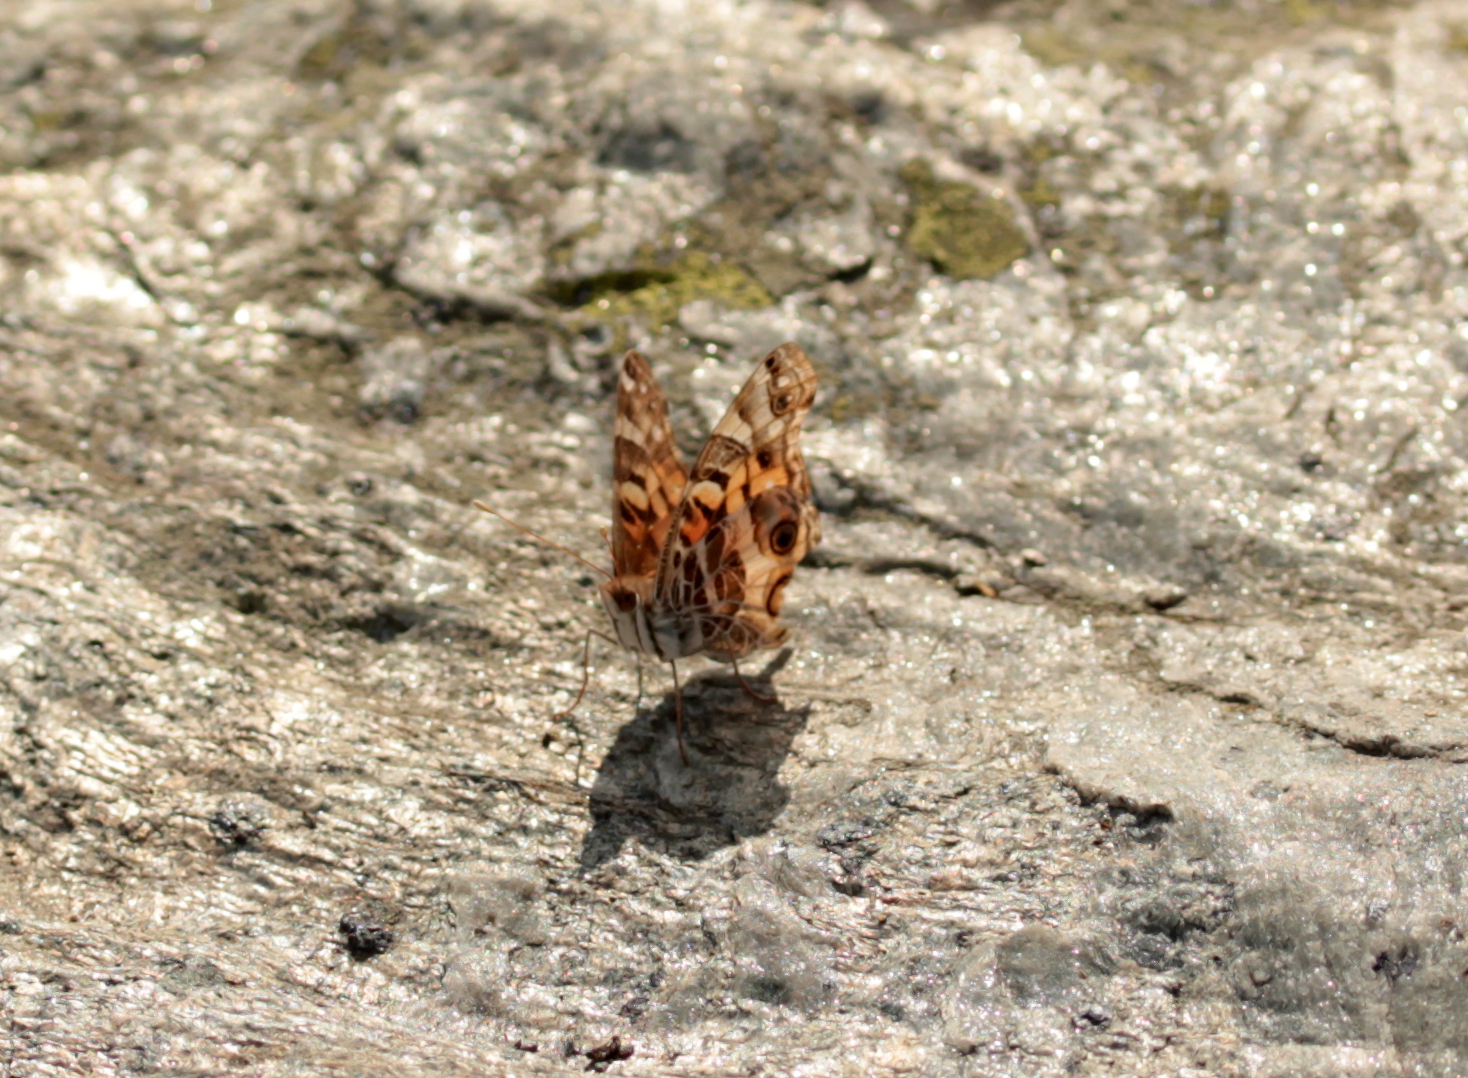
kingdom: Animalia
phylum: Arthropoda
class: Insecta
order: Lepidoptera
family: Nymphalidae
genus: Vanessa
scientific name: Vanessa virginiensis
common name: American lady
